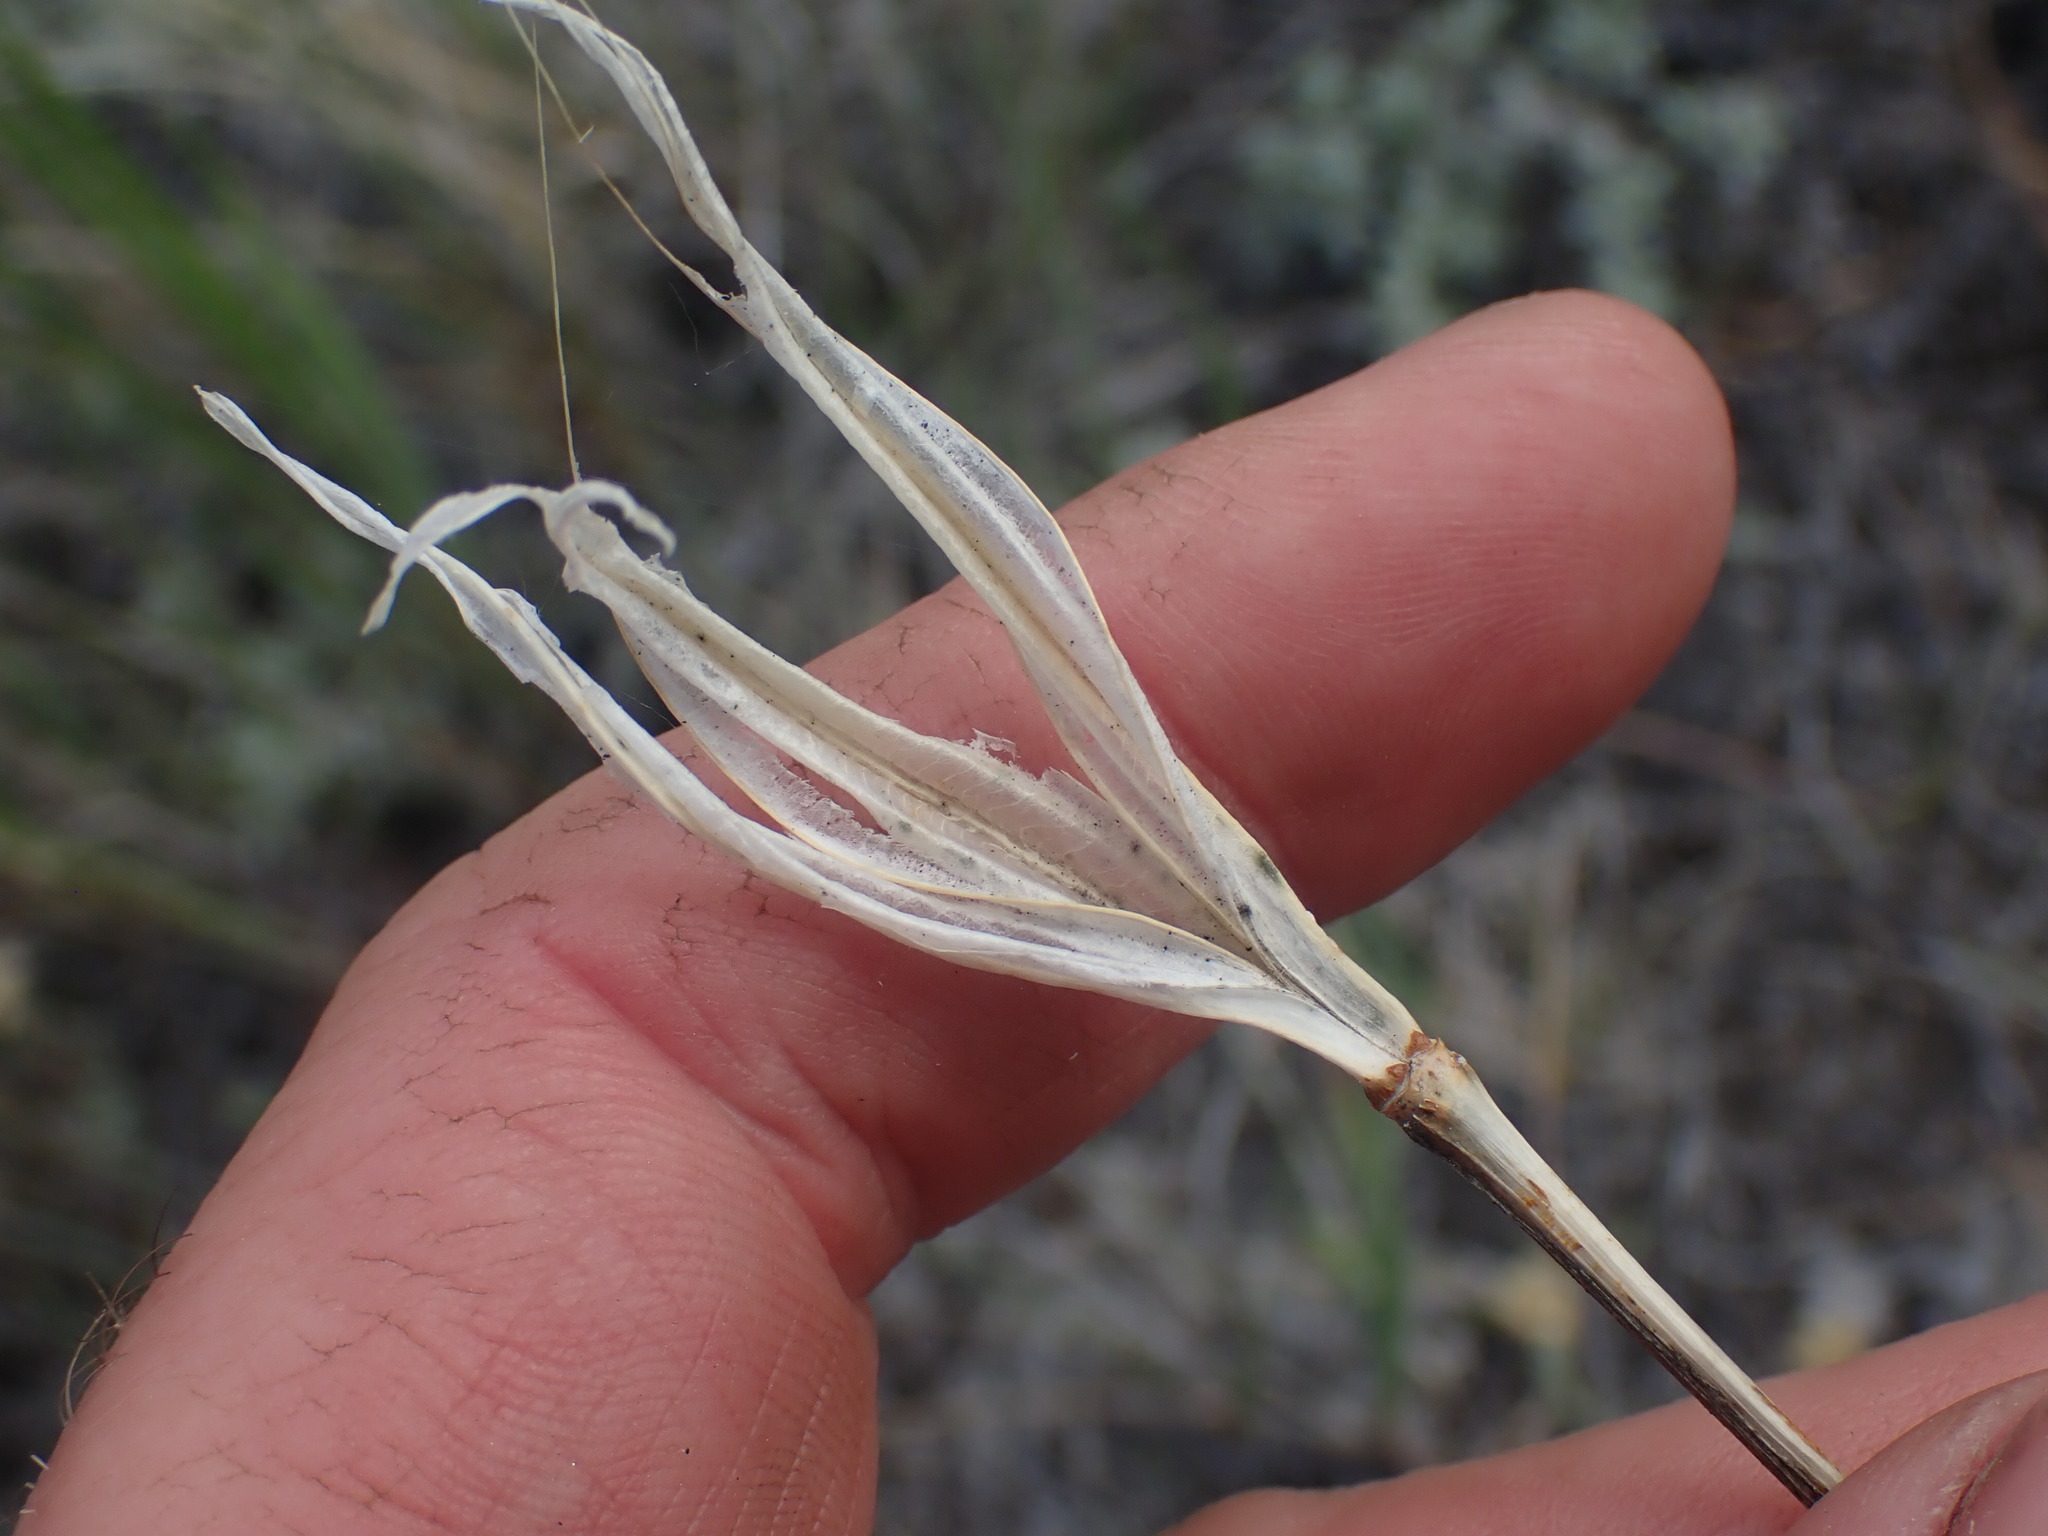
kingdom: Plantae
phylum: Tracheophyta
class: Liliopsida
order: Liliales
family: Liliaceae
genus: Calochortus
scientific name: Calochortus macrocarpus
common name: Green-band mariposa lily
